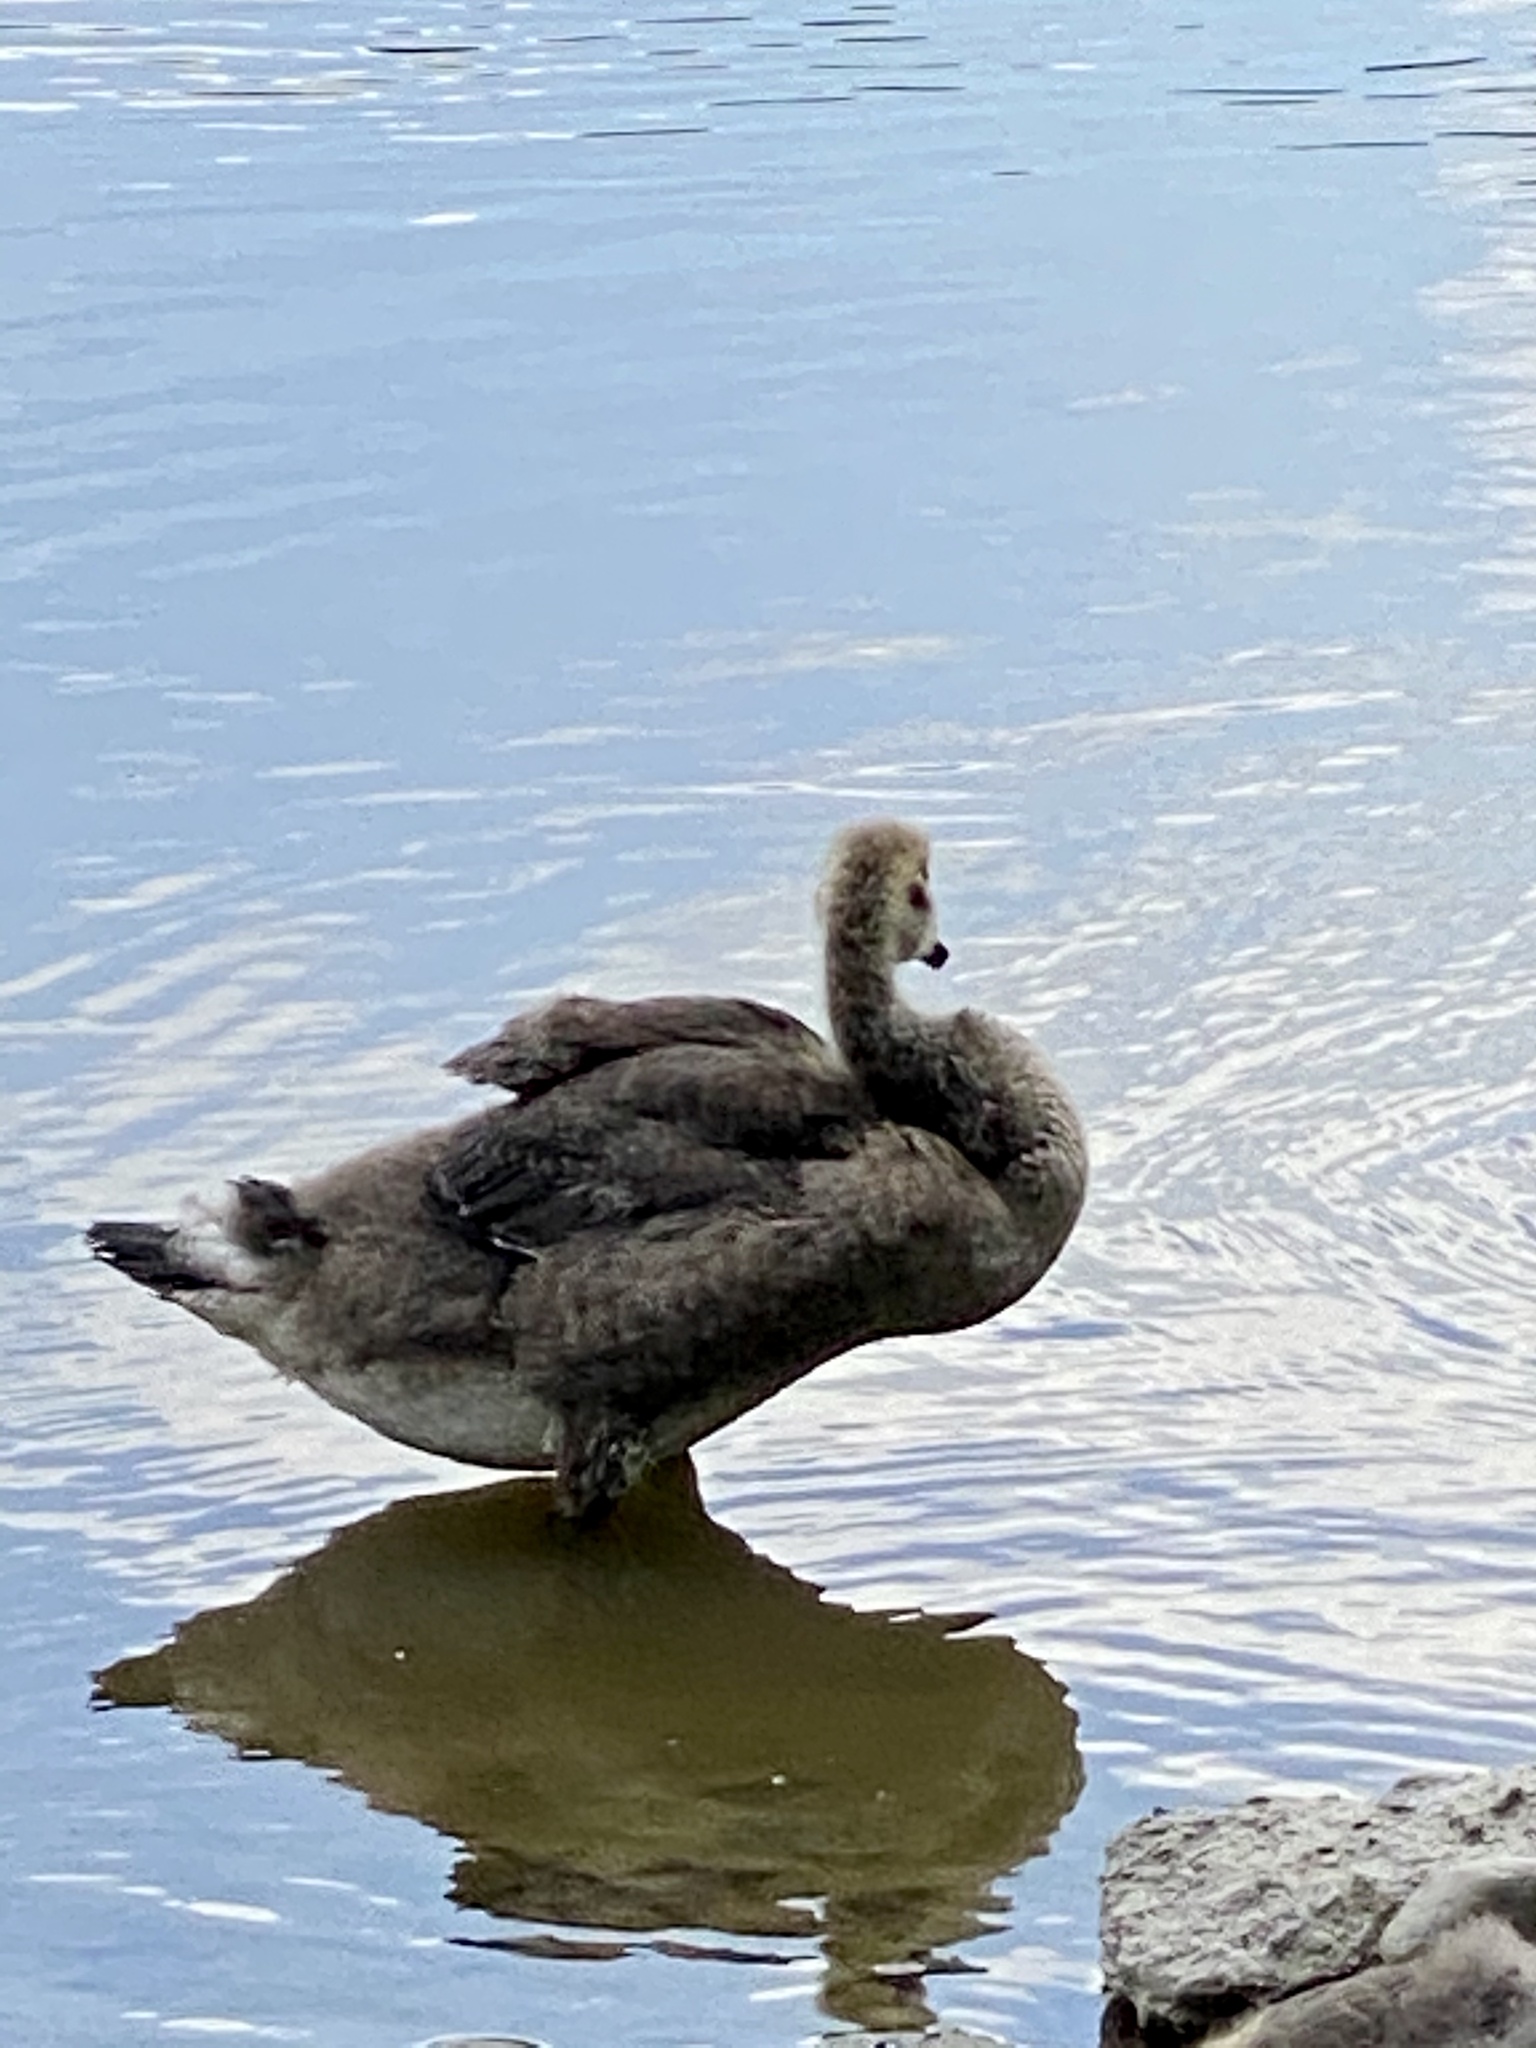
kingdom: Animalia
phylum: Chordata
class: Aves
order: Anseriformes
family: Anatidae
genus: Branta
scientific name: Branta canadensis
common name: Canada goose
